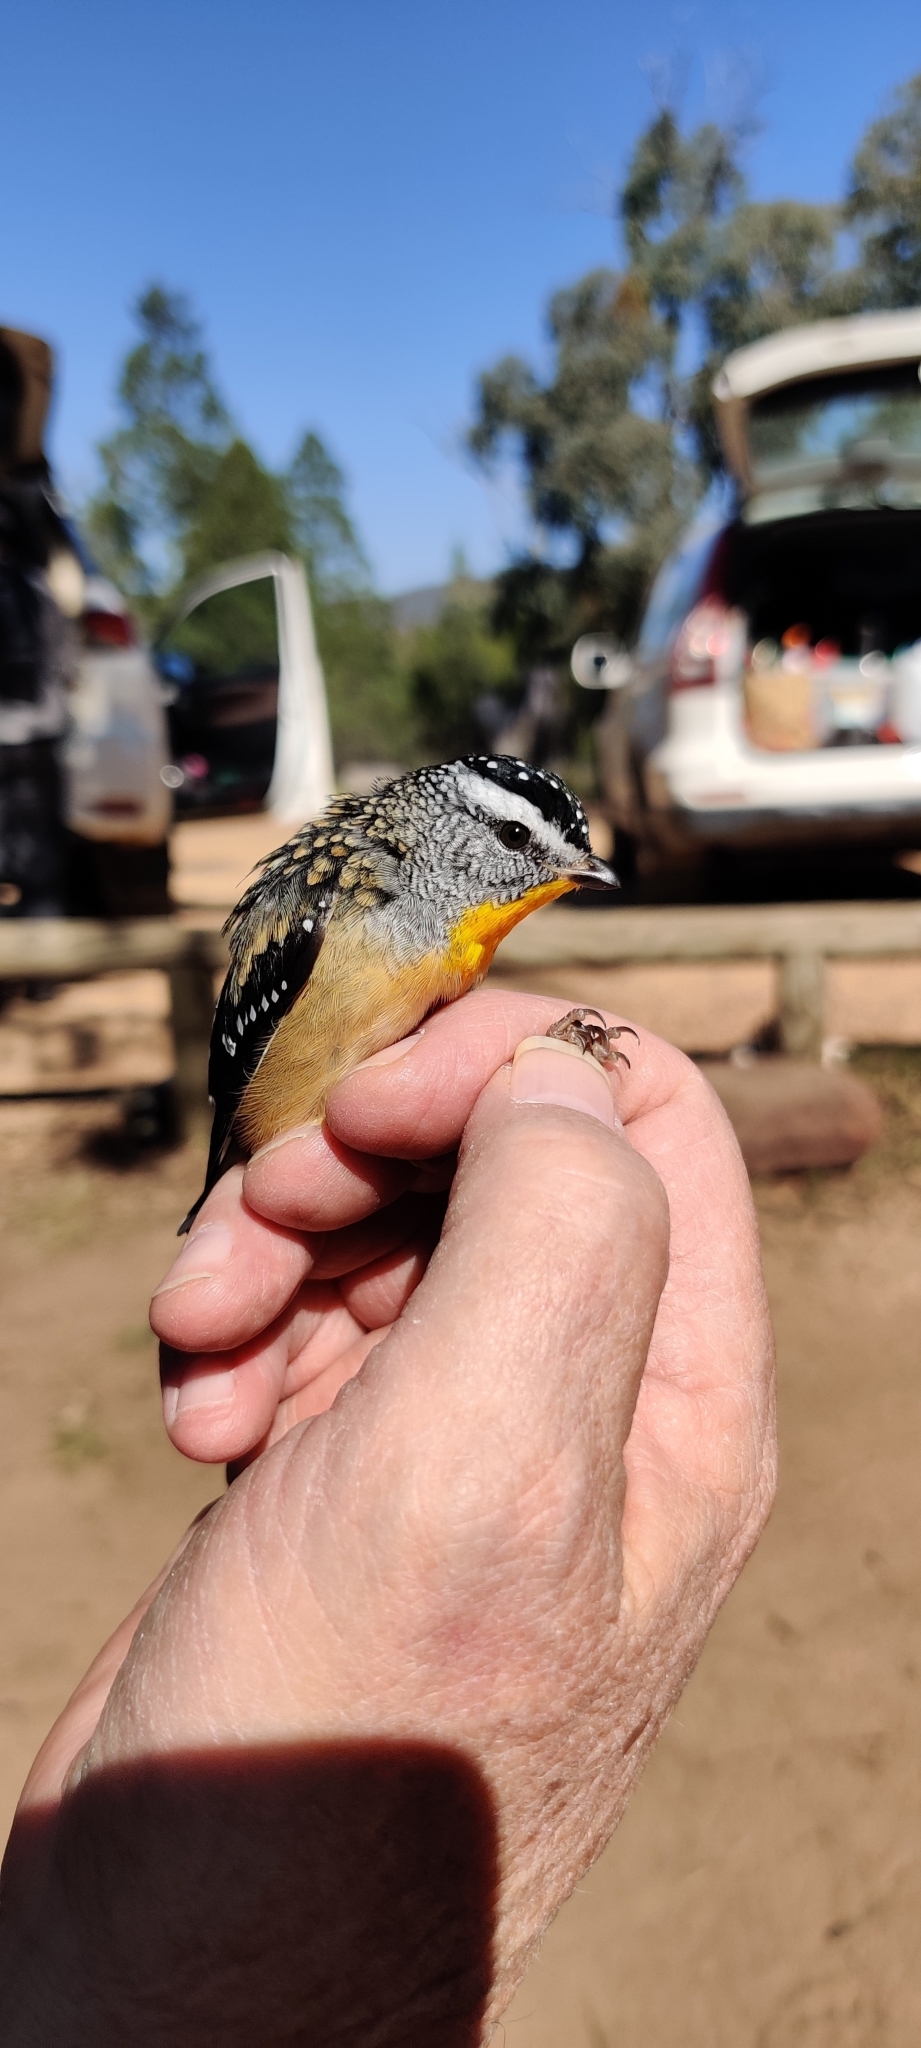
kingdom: Animalia
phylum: Chordata
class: Aves
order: Passeriformes
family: Pardalotidae
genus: Pardalotus
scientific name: Pardalotus punctatus
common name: Spotted pardalote
